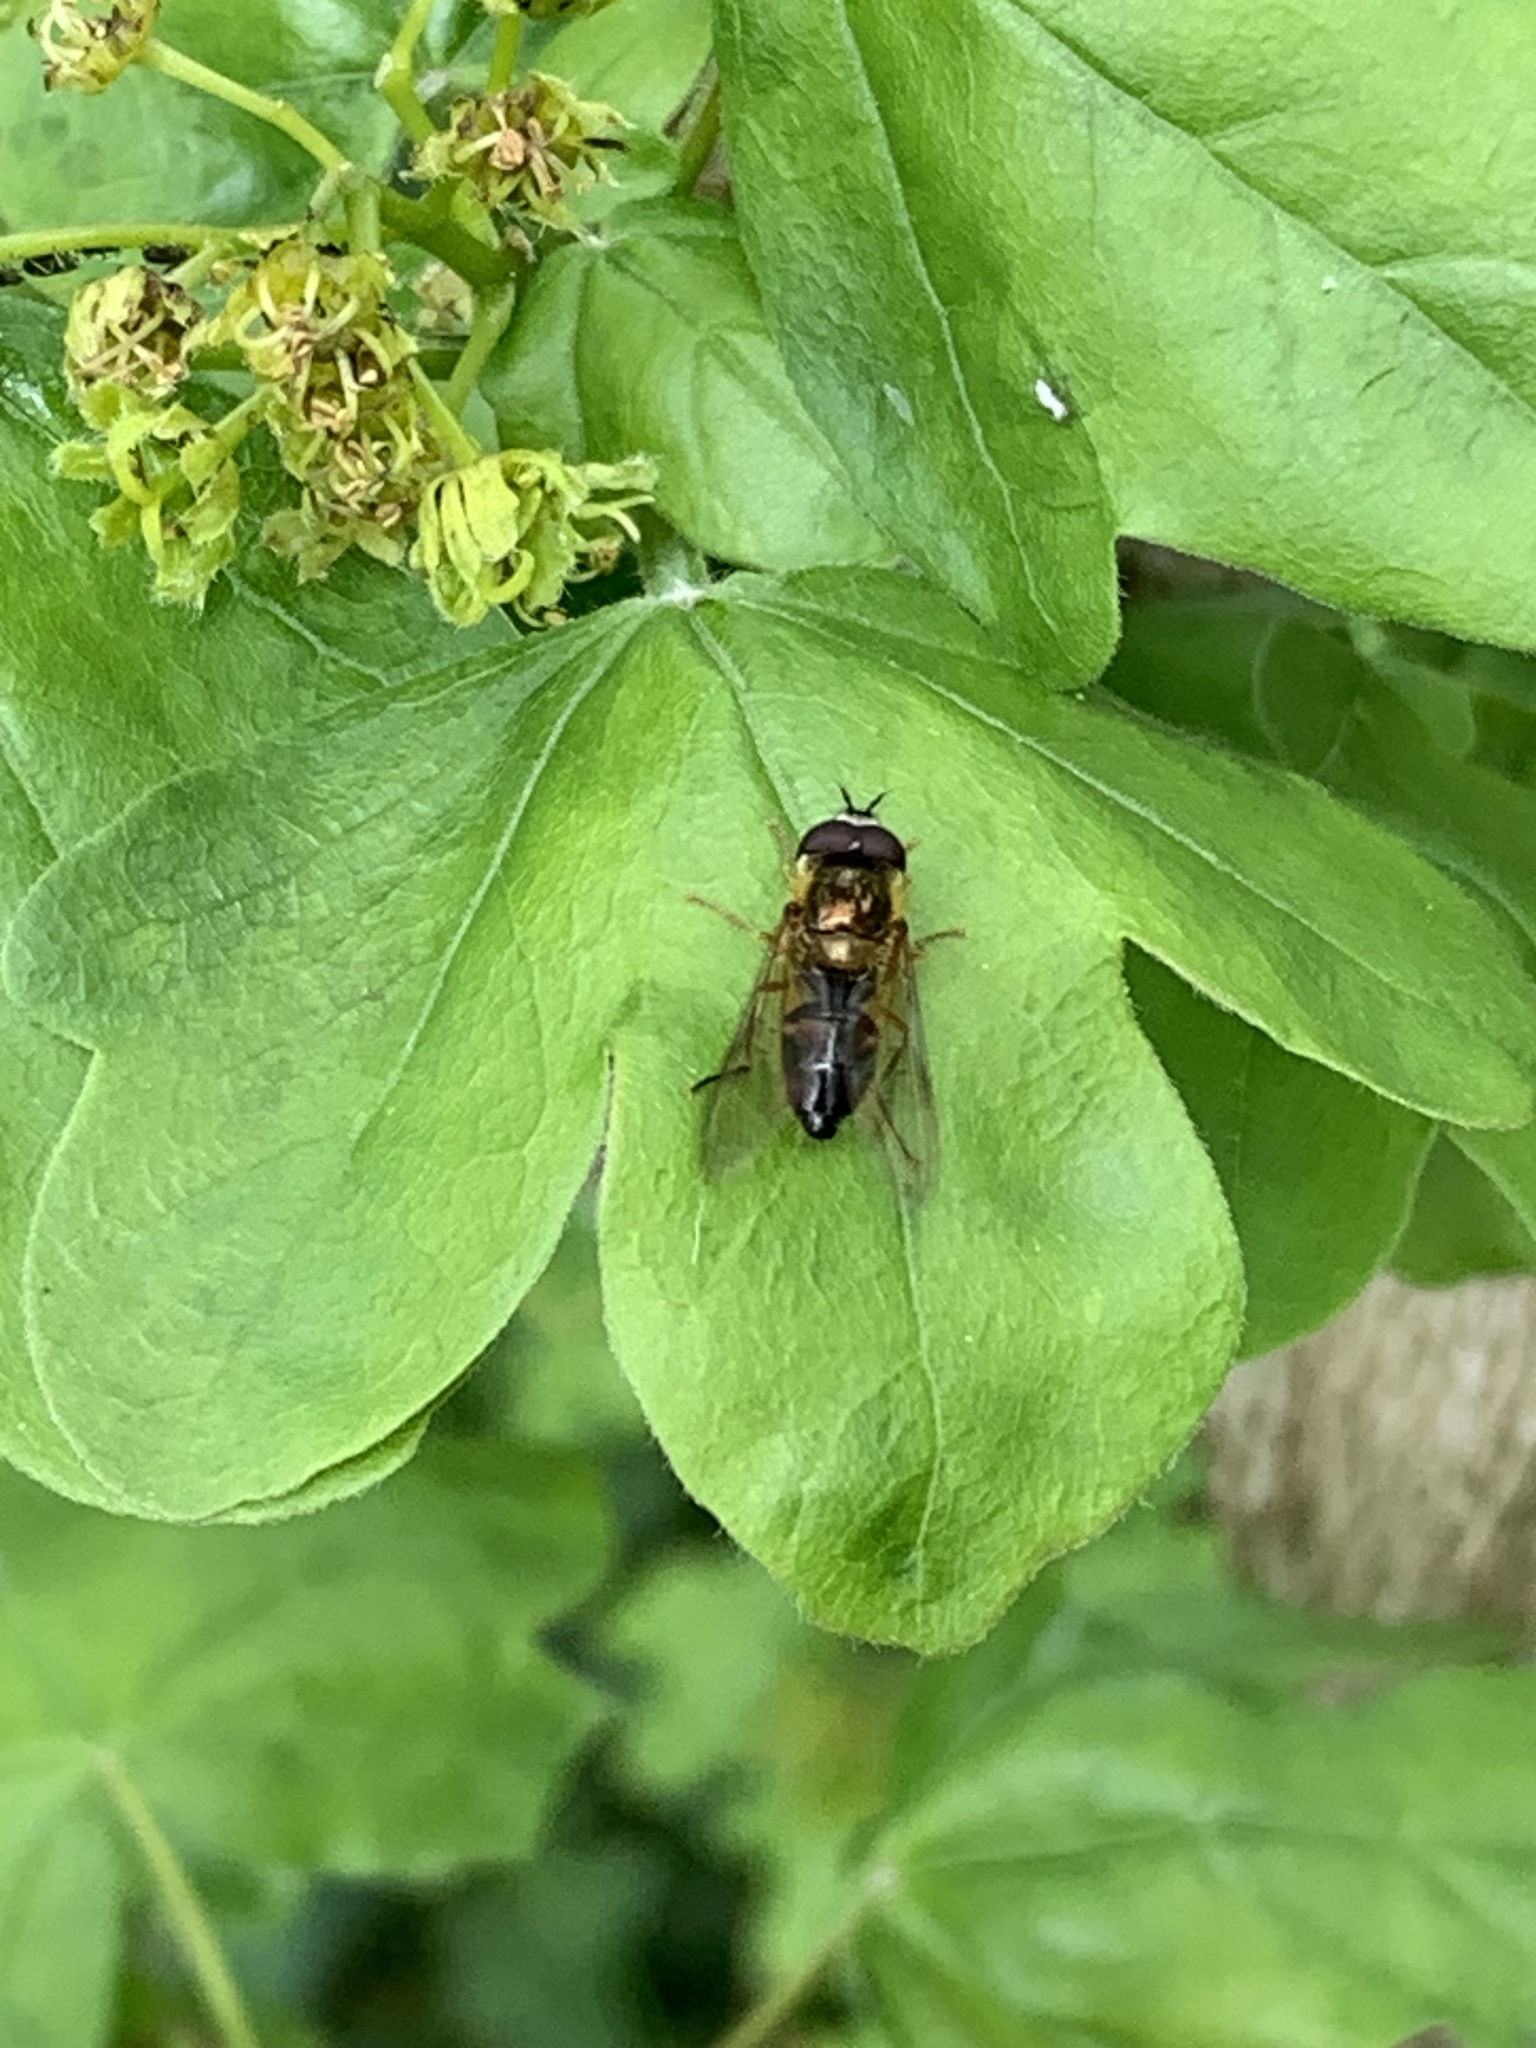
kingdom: Animalia
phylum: Arthropoda
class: Insecta
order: Diptera
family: Syrphidae
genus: Epistrophe
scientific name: Epistrophe eligans
